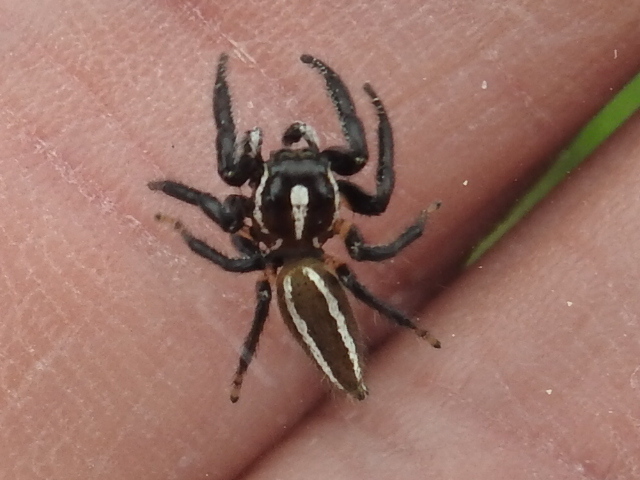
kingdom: Animalia
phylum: Arthropoda
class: Arachnida
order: Araneae
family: Salticidae
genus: Colonus
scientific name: Colonus puerperus
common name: Jumping spiders
